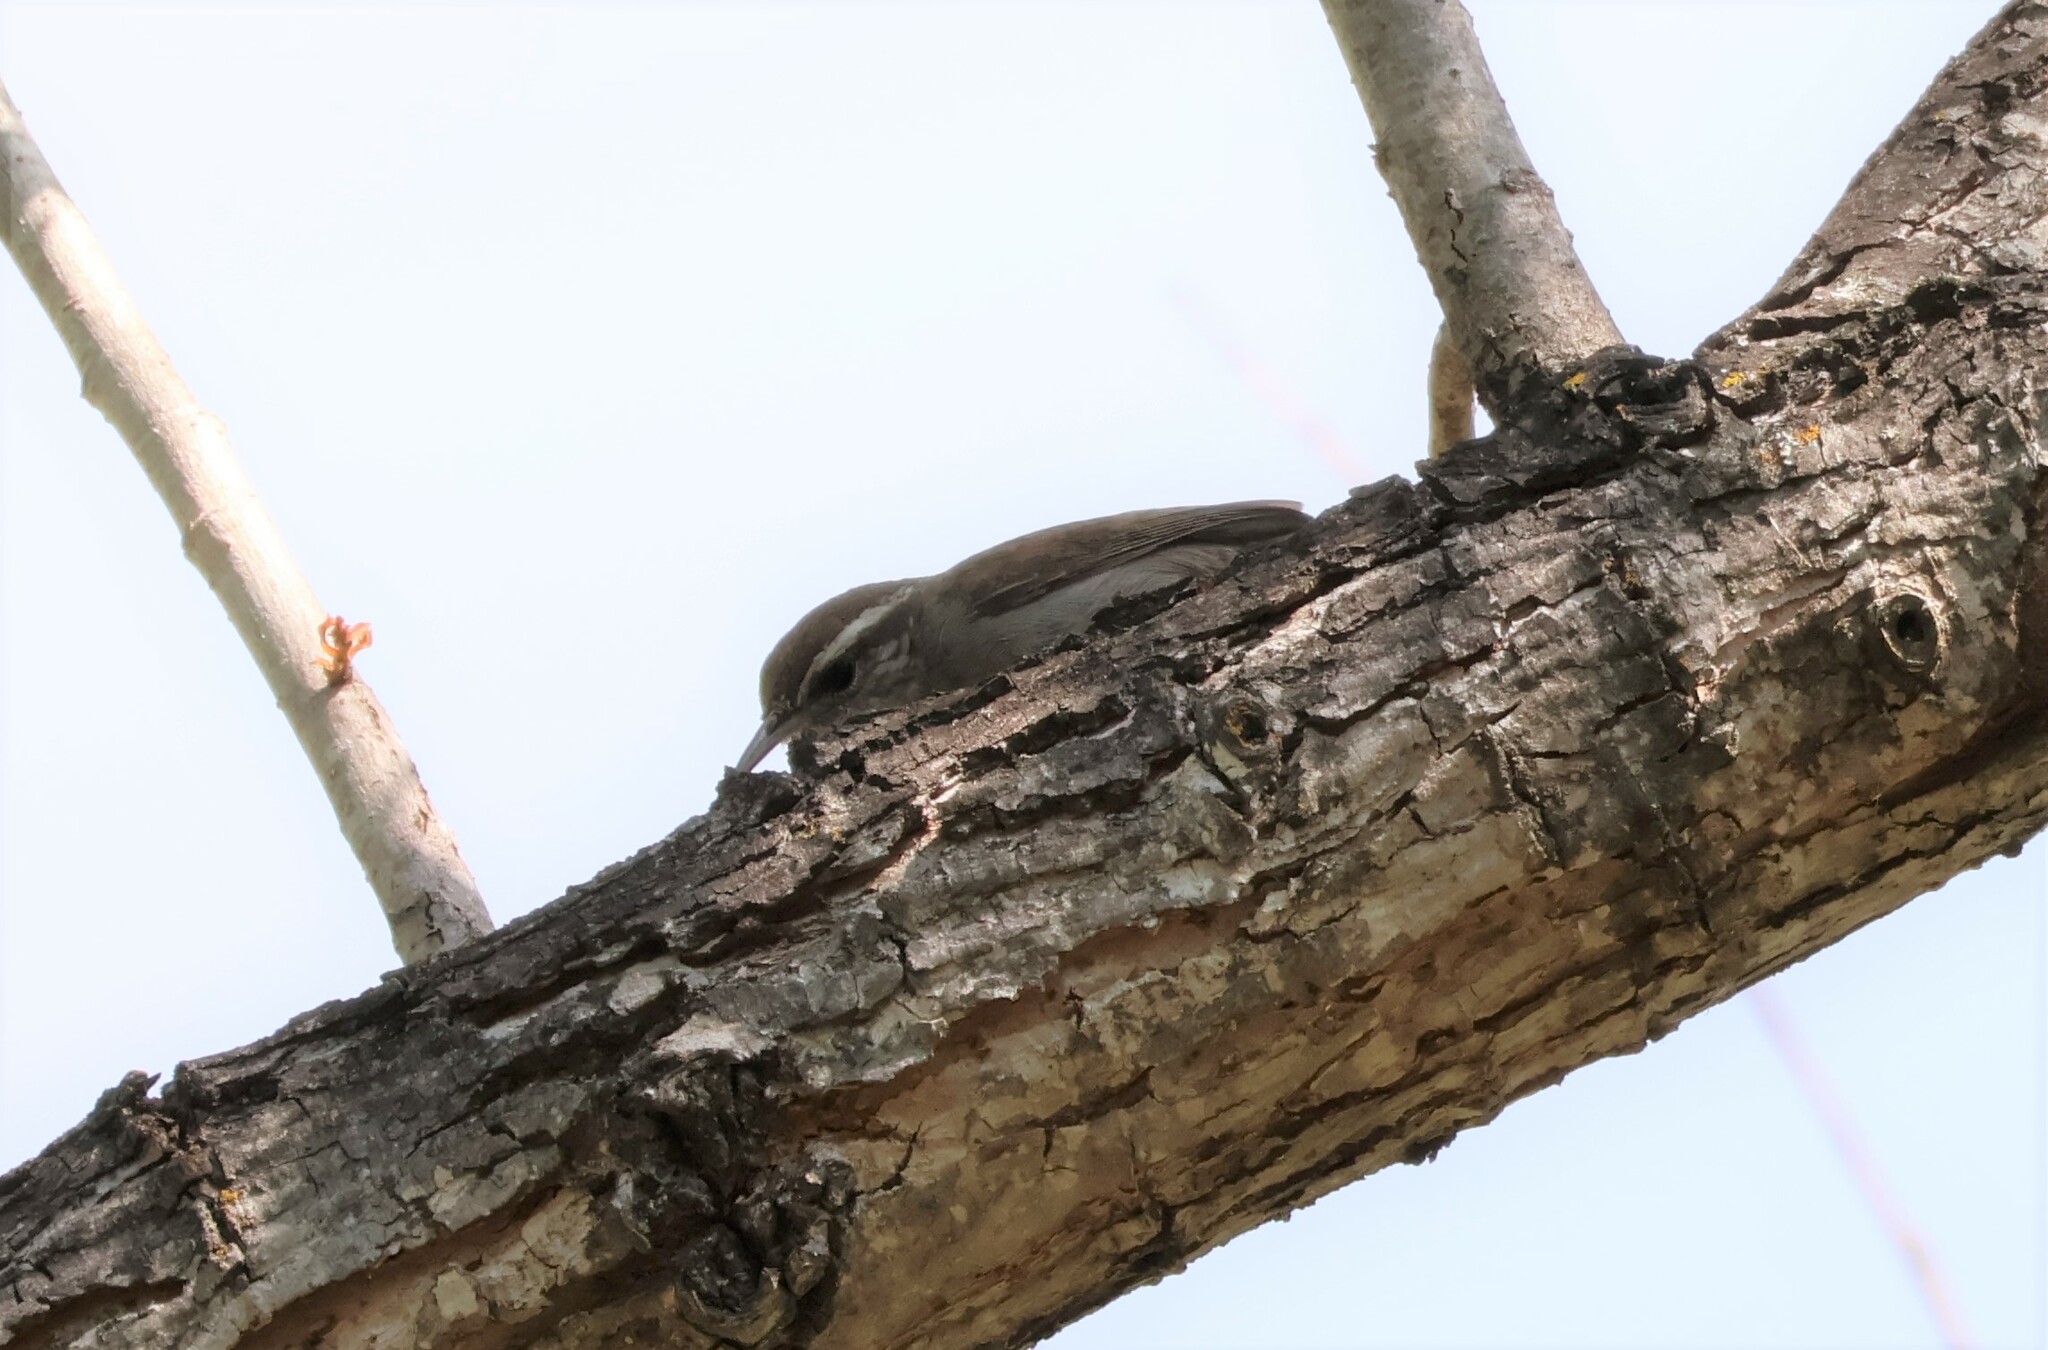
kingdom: Animalia
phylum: Chordata
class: Aves
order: Passeriformes
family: Troglodytidae
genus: Thryomanes
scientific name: Thryomanes bewickii
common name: Bewick's wren
